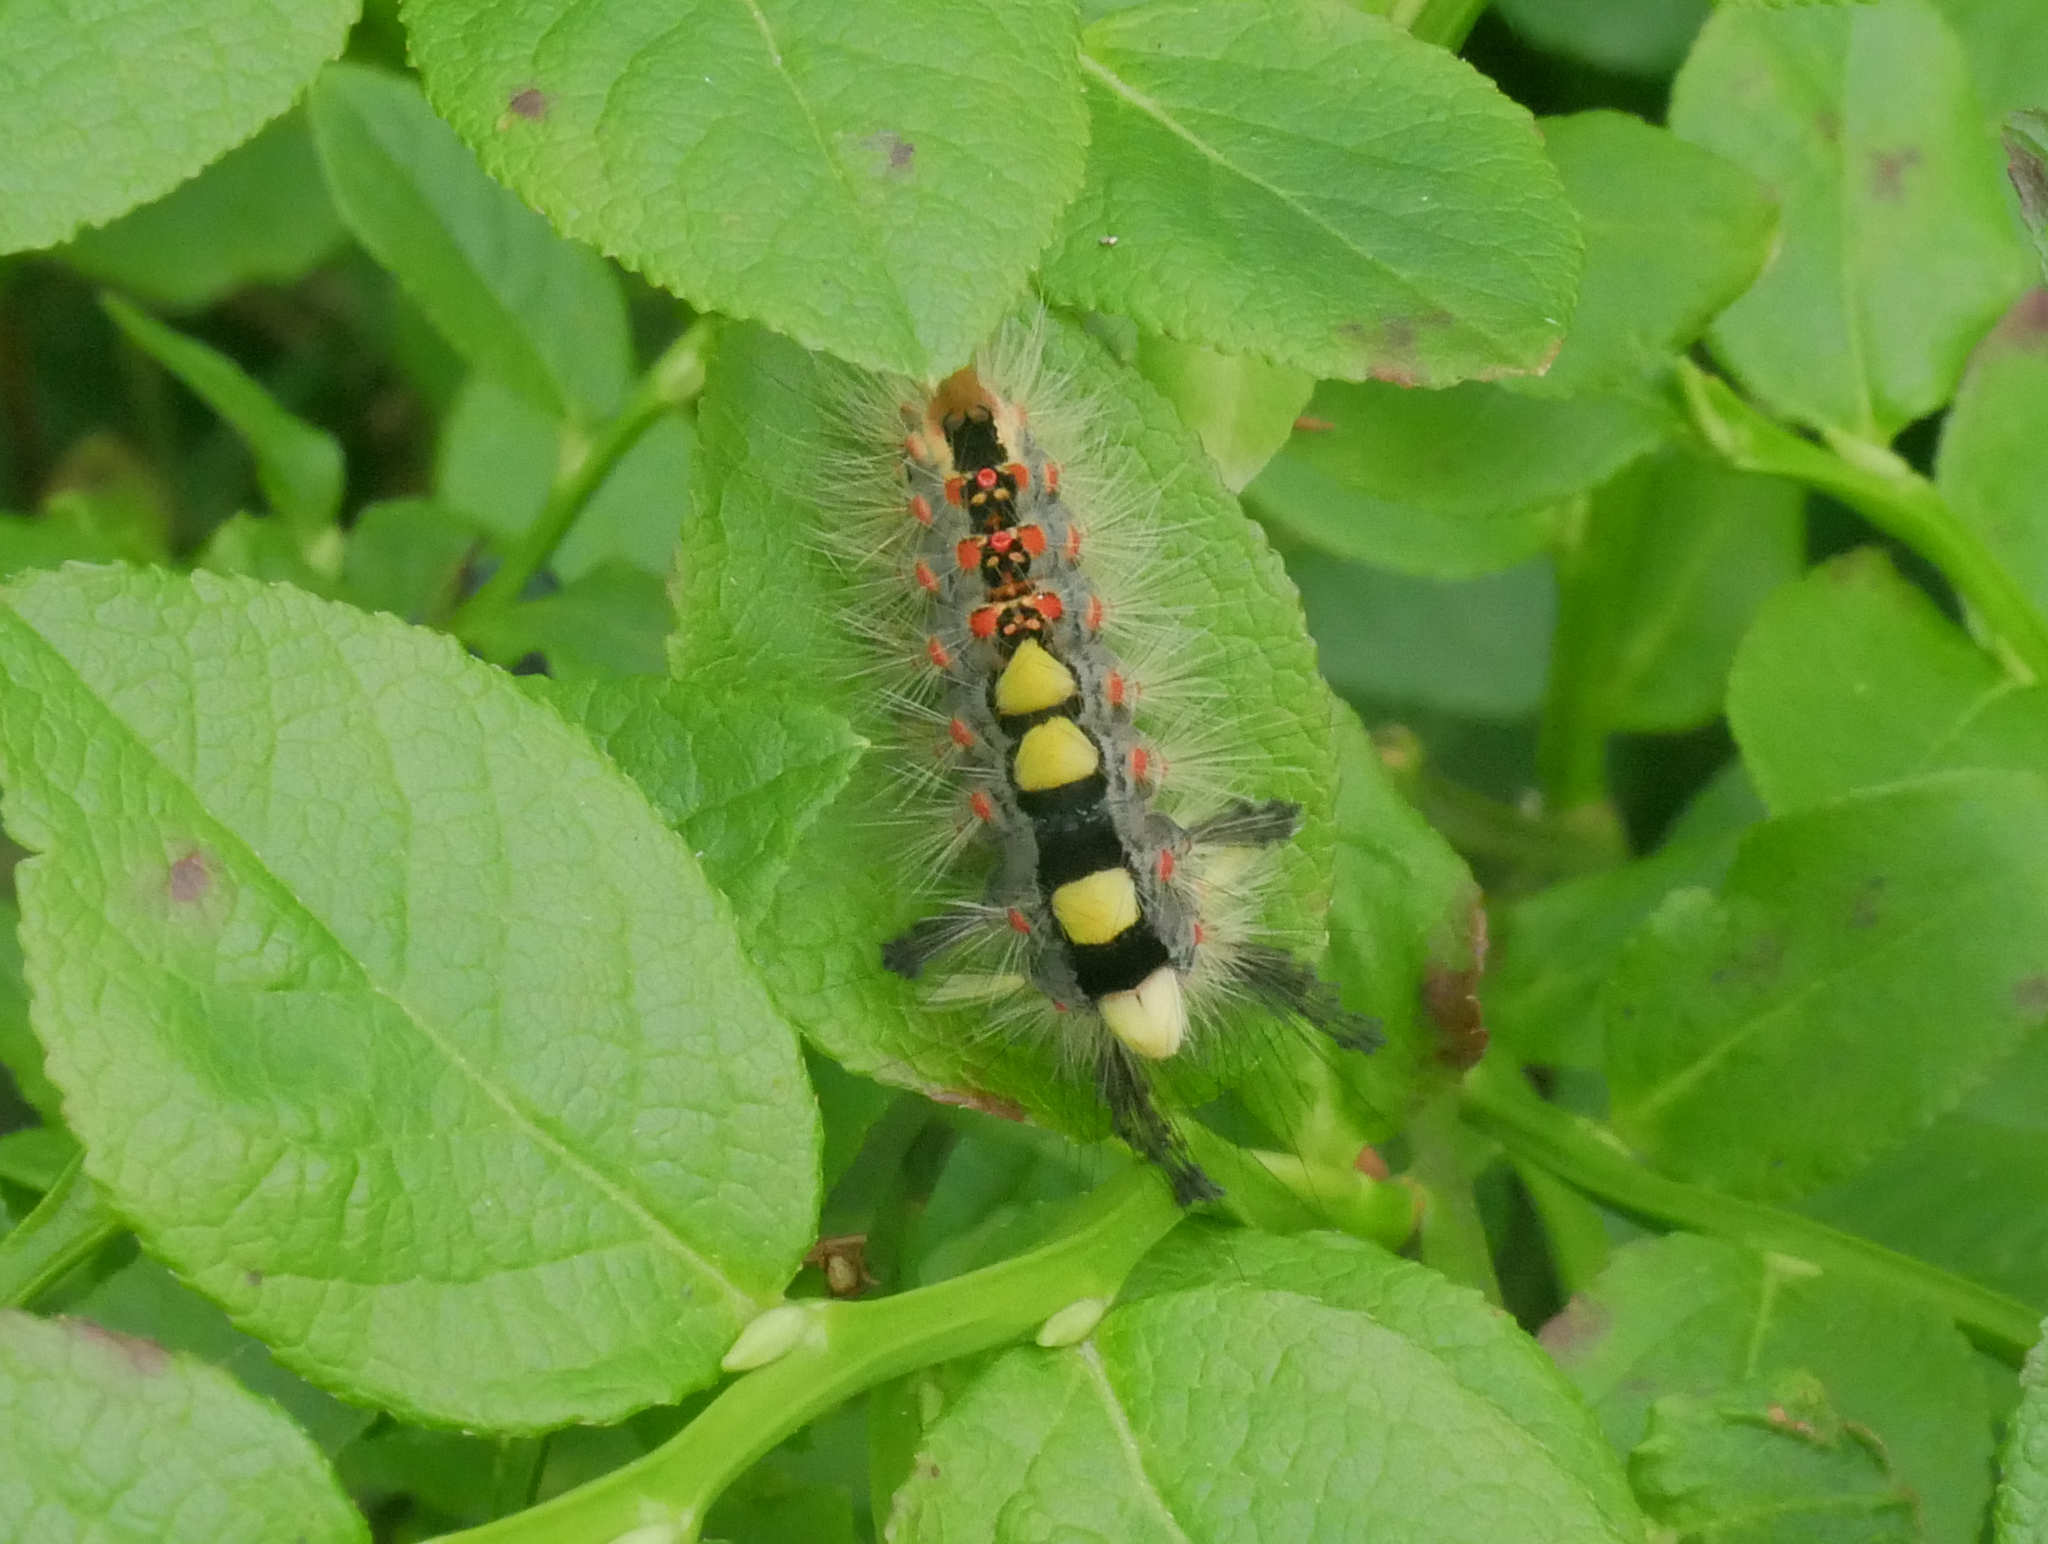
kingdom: Animalia
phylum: Arthropoda
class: Insecta
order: Lepidoptera
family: Erebidae
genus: Orgyia
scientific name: Orgyia antiqua
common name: Vapourer
